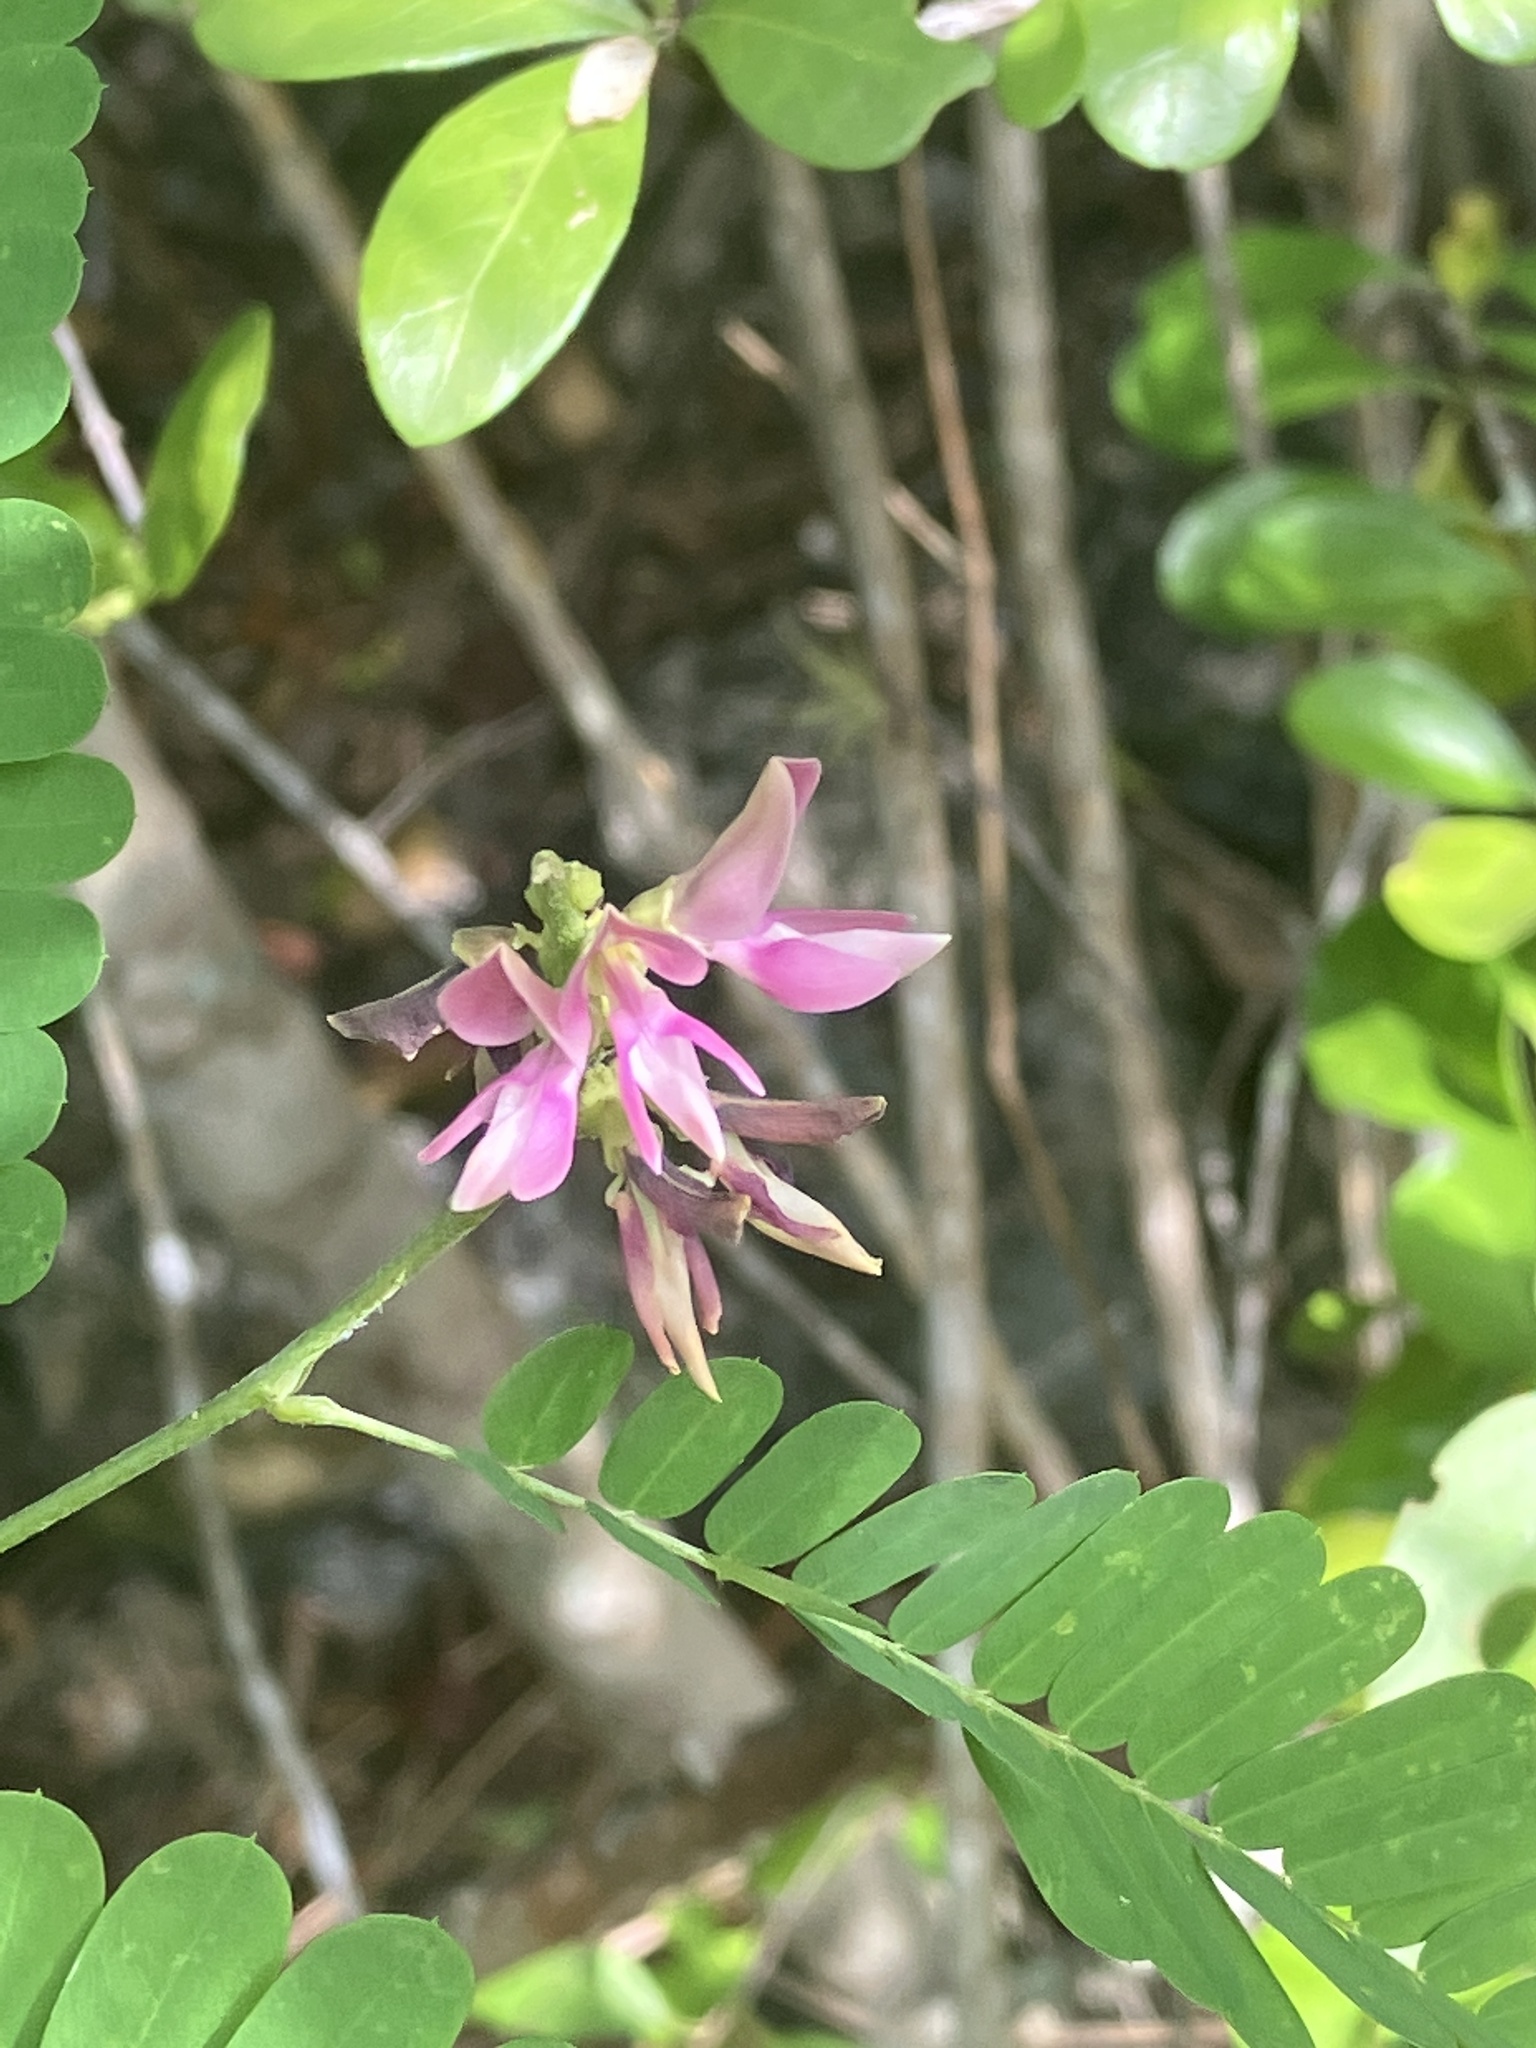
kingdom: Plantae
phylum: Tracheophyta
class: Magnoliopsida
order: Fabales
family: Fabaceae
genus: Abrus
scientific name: Abrus precatorius
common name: Rosarypea
